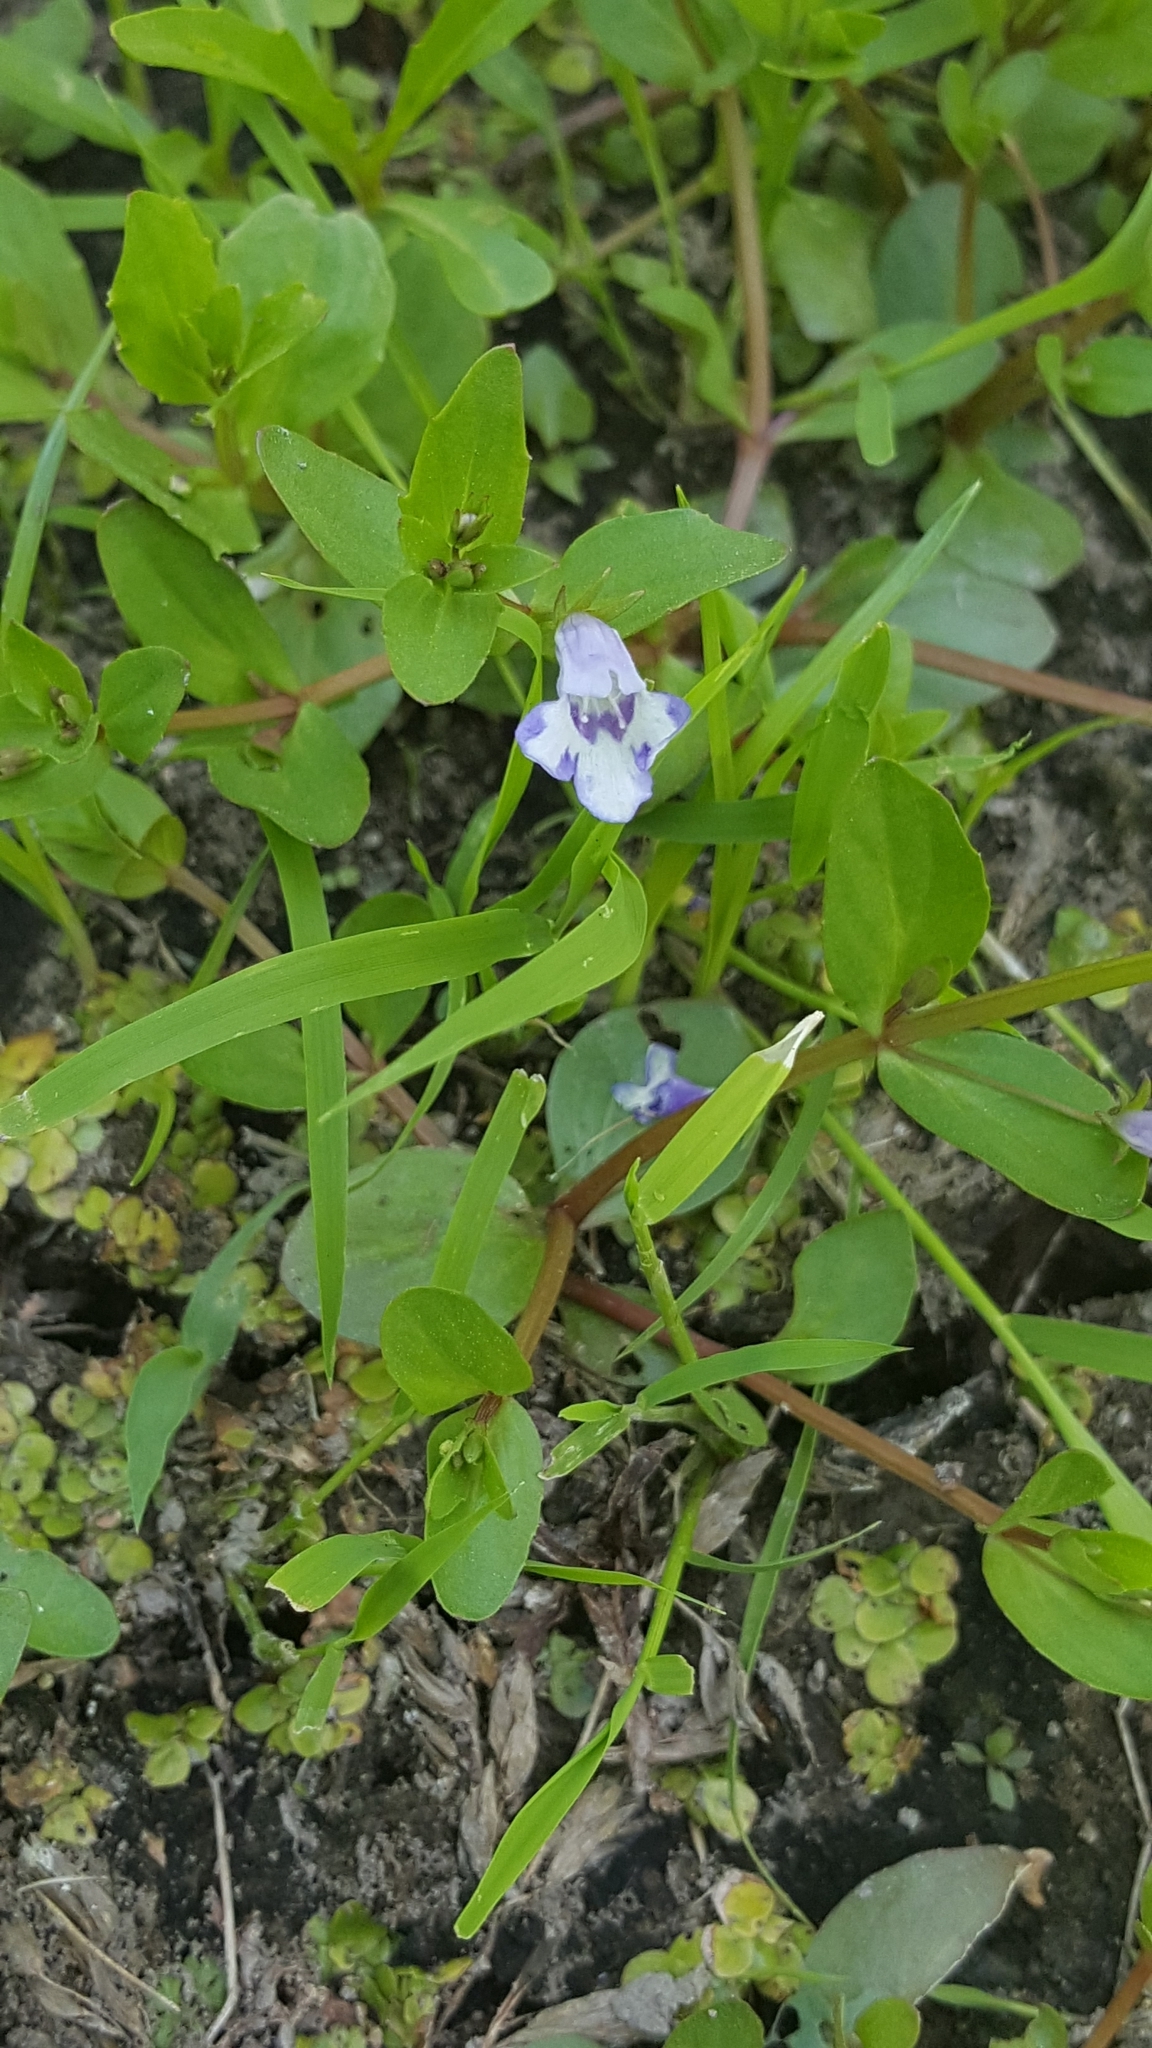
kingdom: Plantae
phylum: Tracheophyta
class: Magnoliopsida
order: Lamiales
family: Linderniaceae
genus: Lindernia
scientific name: Lindernia dubia
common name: Annual false pimpernel
